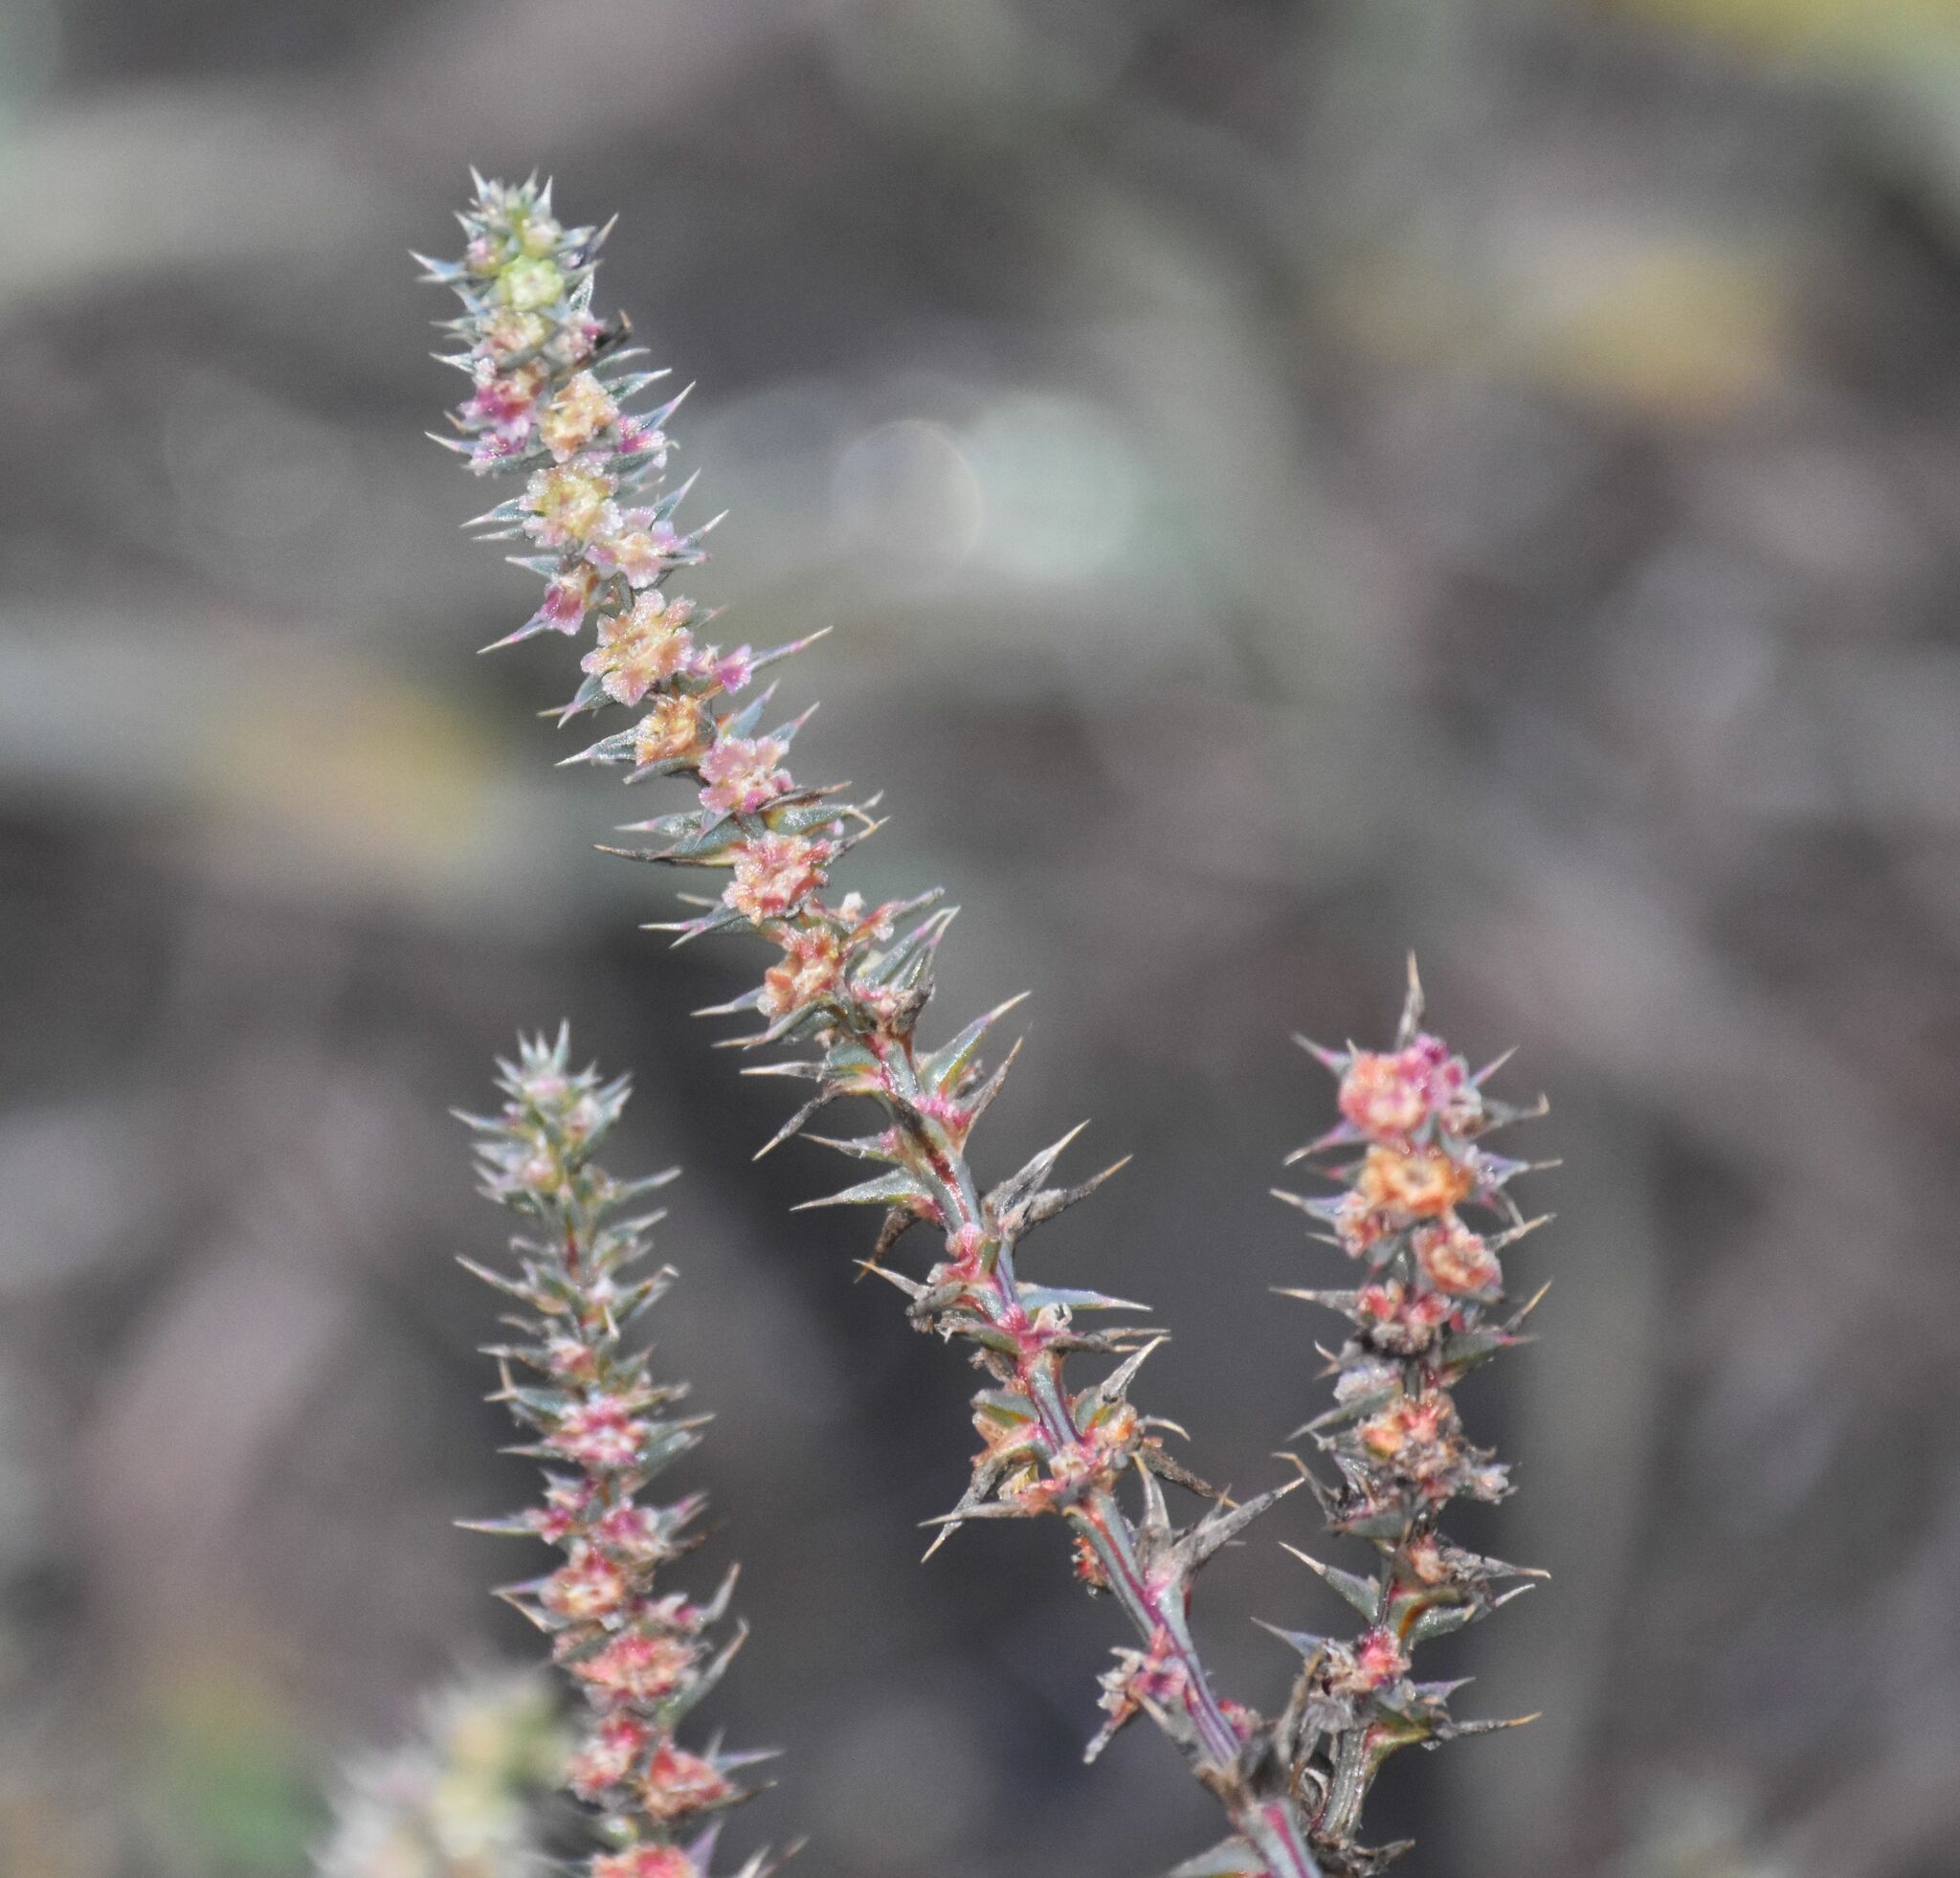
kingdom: Plantae
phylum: Tracheophyta
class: Magnoliopsida
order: Caryophyllales
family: Amaranthaceae
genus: Salsola
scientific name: Salsola tragus
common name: Prickly russian thistle
